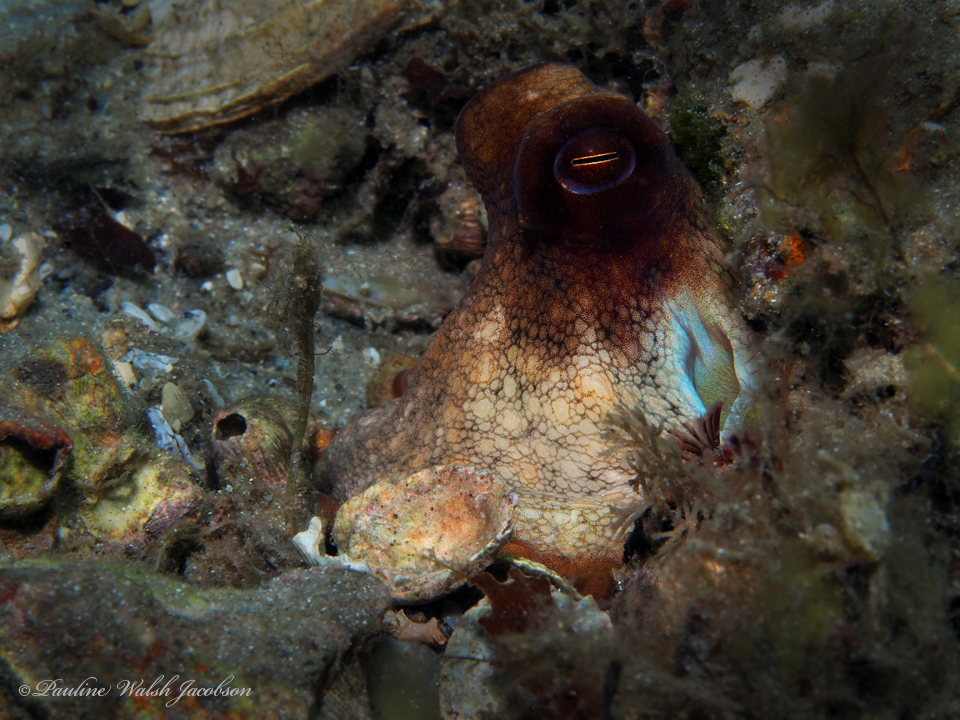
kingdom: Animalia
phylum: Mollusca
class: Cephalopoda
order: Octopoda
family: Octopodidae
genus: Octopus
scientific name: Octopus americanus
